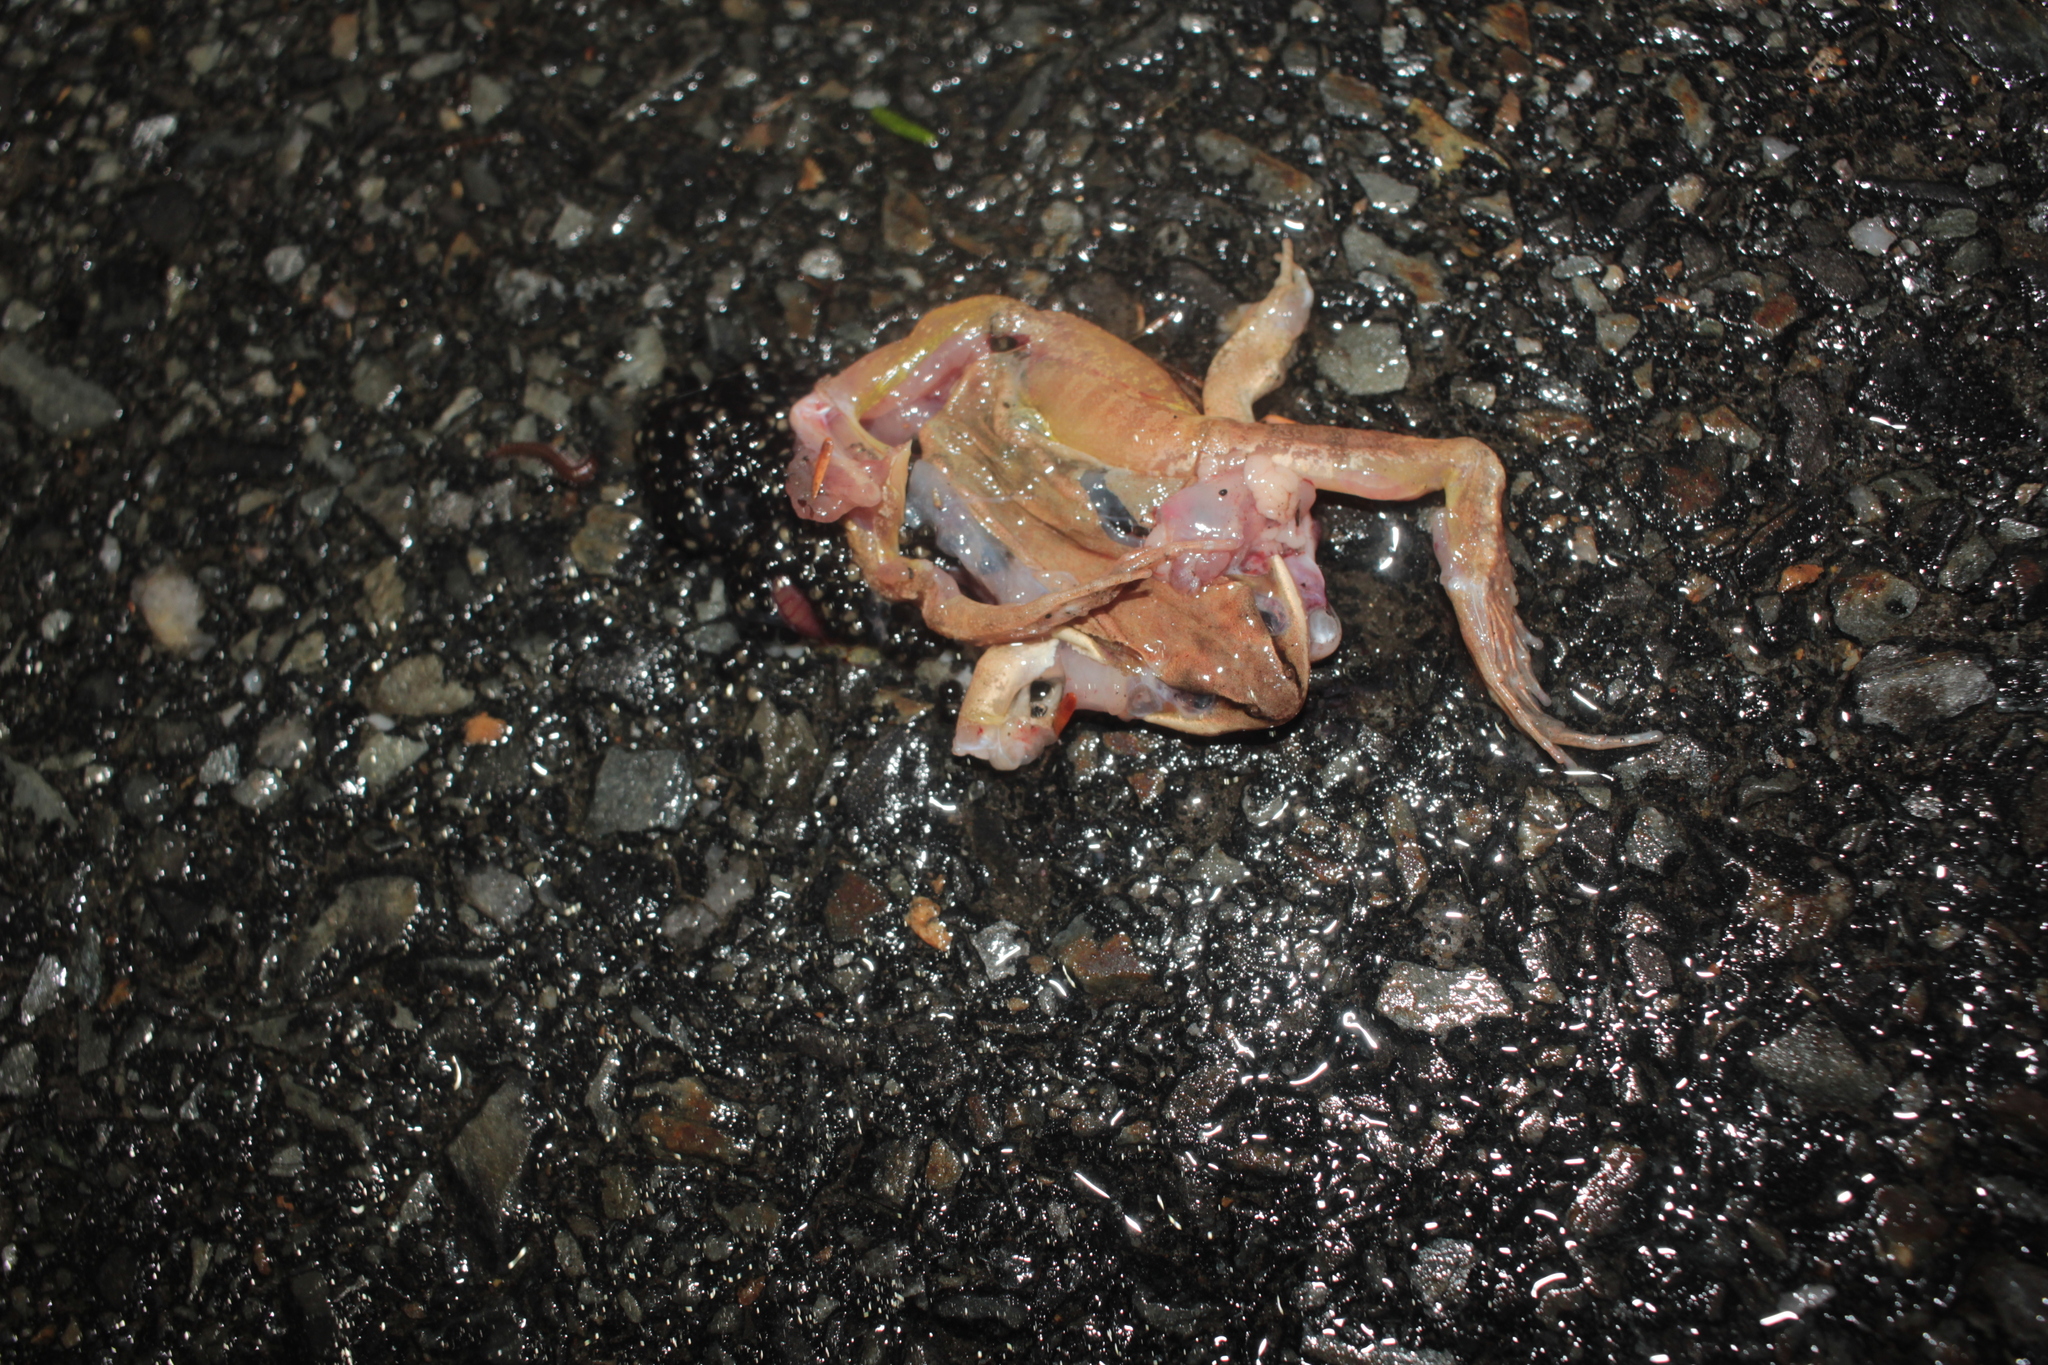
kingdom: Animalia
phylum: Chordata
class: Amphibia
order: Anura
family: Ranidae
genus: Lithobates
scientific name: Lithobates sylvaticus
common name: Wood frog
